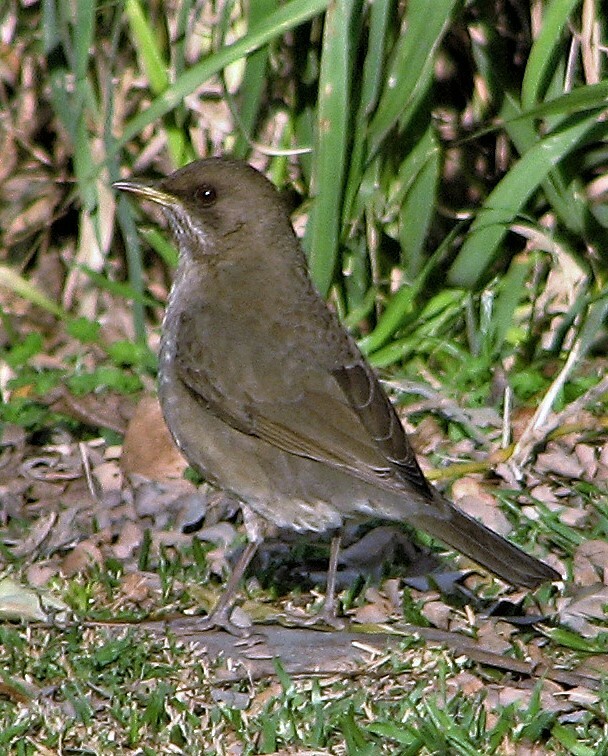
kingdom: Animalia
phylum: Chordata
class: Aves
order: Passeriformes
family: Turdidae
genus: Turdus
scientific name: Turdus amaurochalinus
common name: Creamy-bellied thrush
